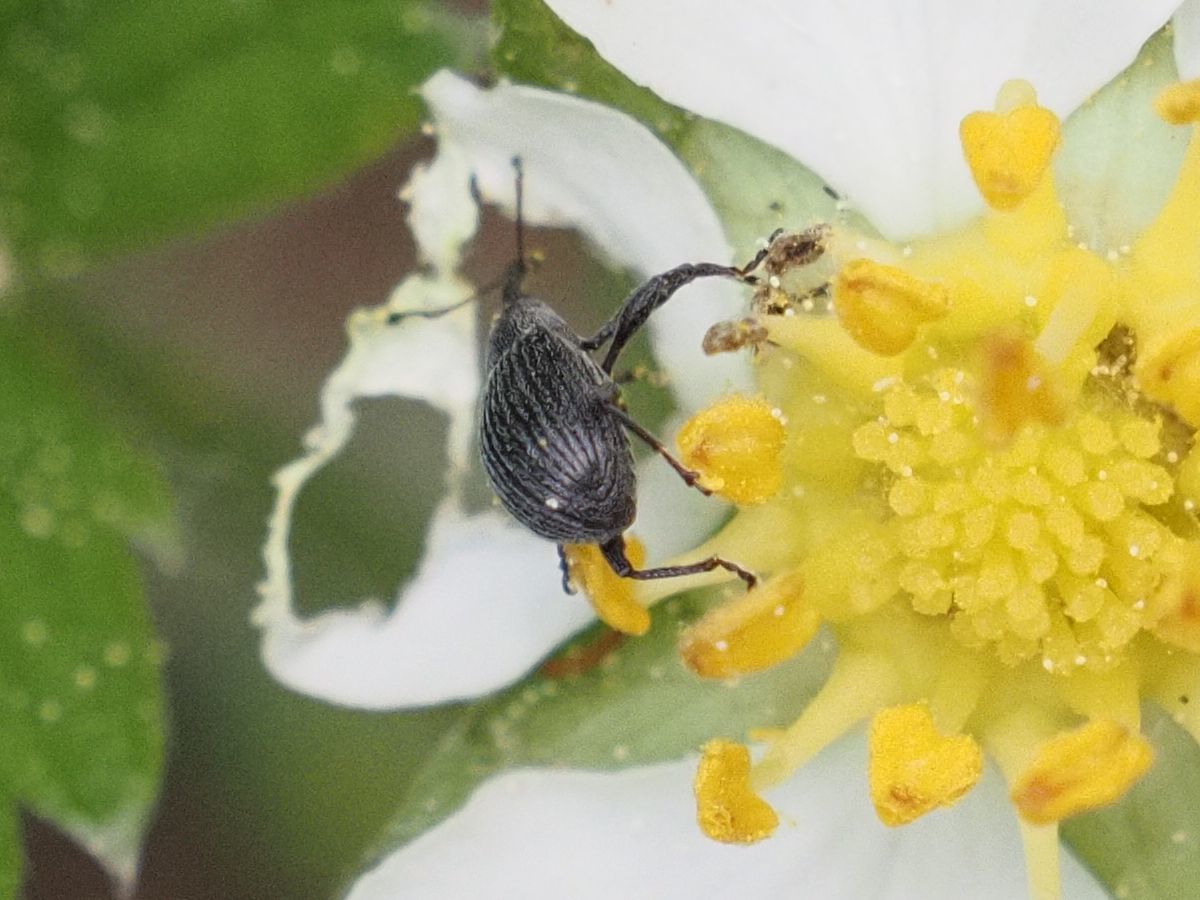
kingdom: Animalia
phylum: Arthropoda
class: Insecta
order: Coleoptera
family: Curculionidae
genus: Anthonomus
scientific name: Anthonomus rubi
